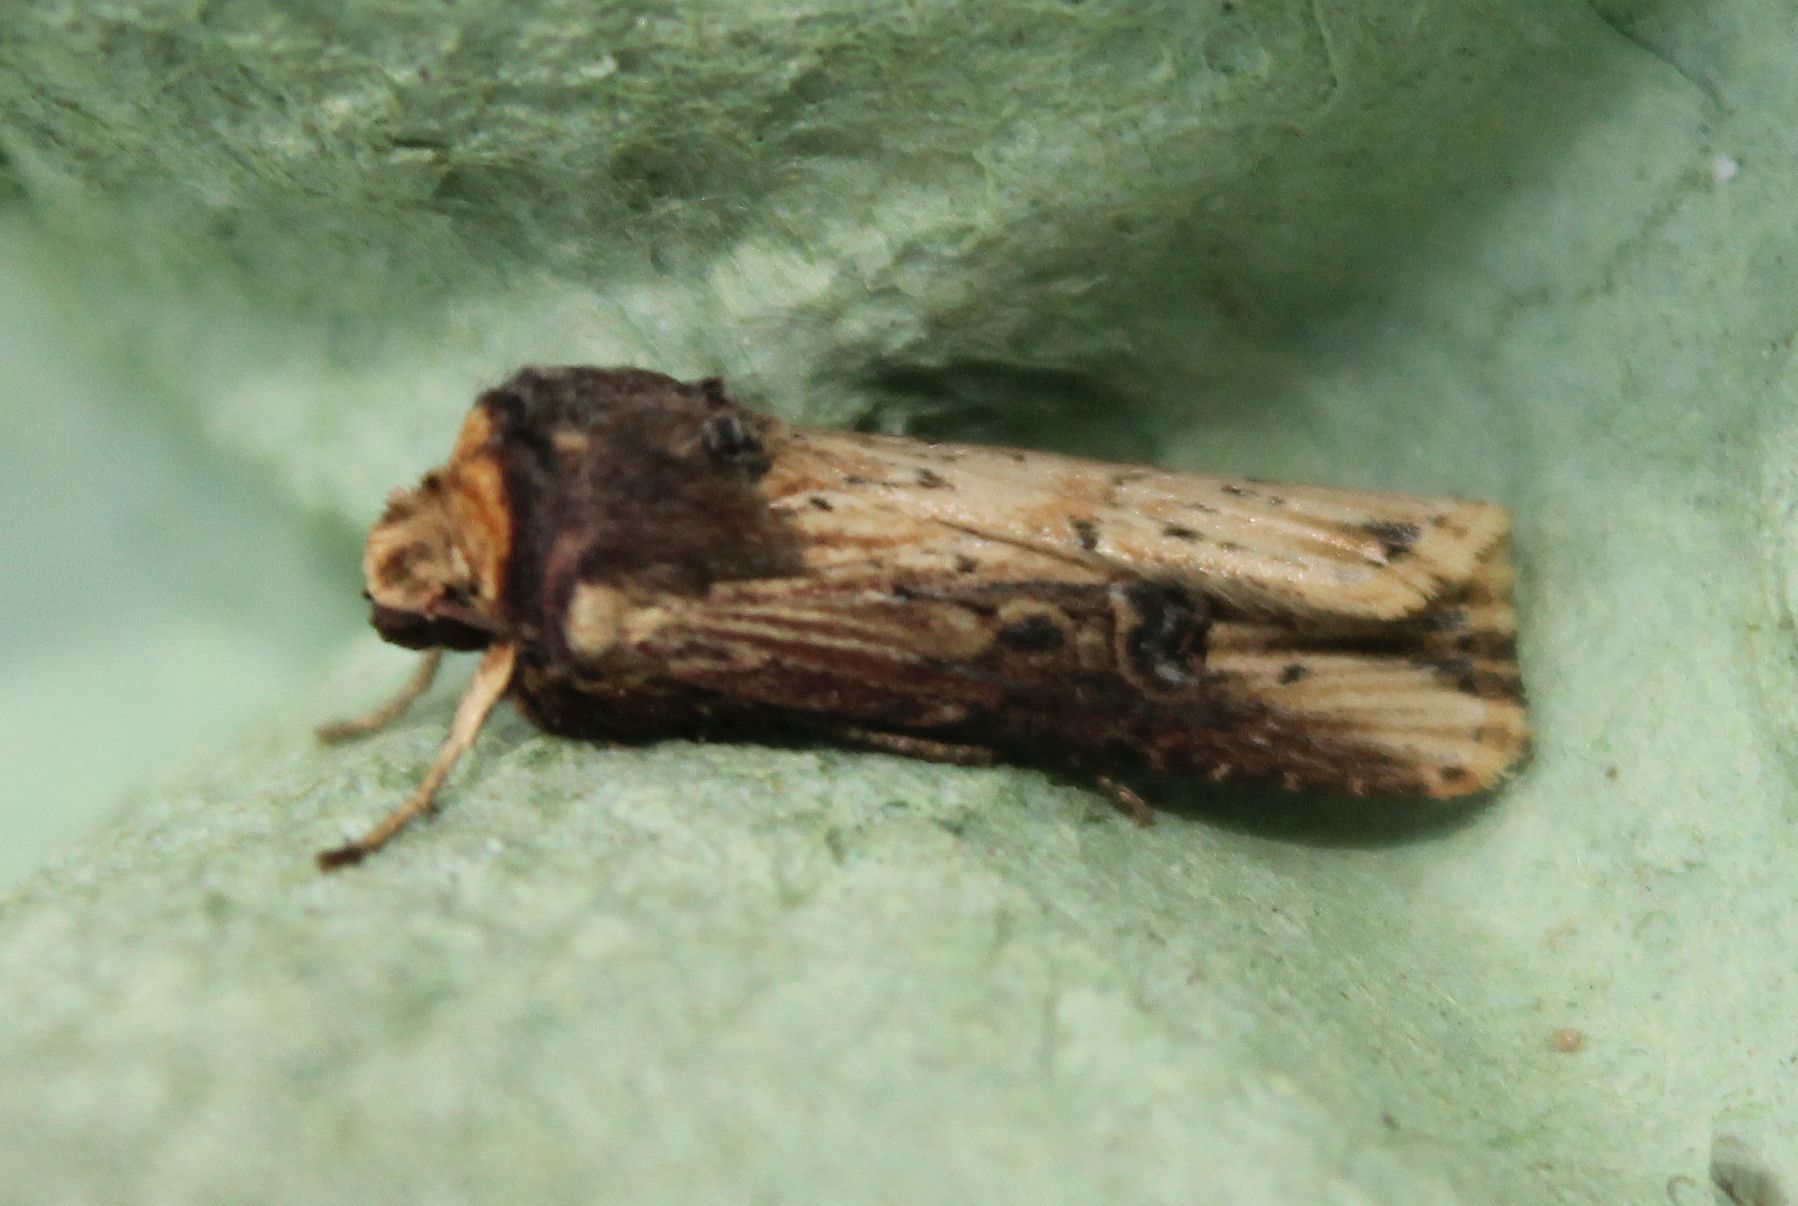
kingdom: Animalia
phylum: Arthropoda
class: Insecta
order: Lepidoptera
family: Noctuidae
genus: Axylia
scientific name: Axylia putris
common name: Flame
